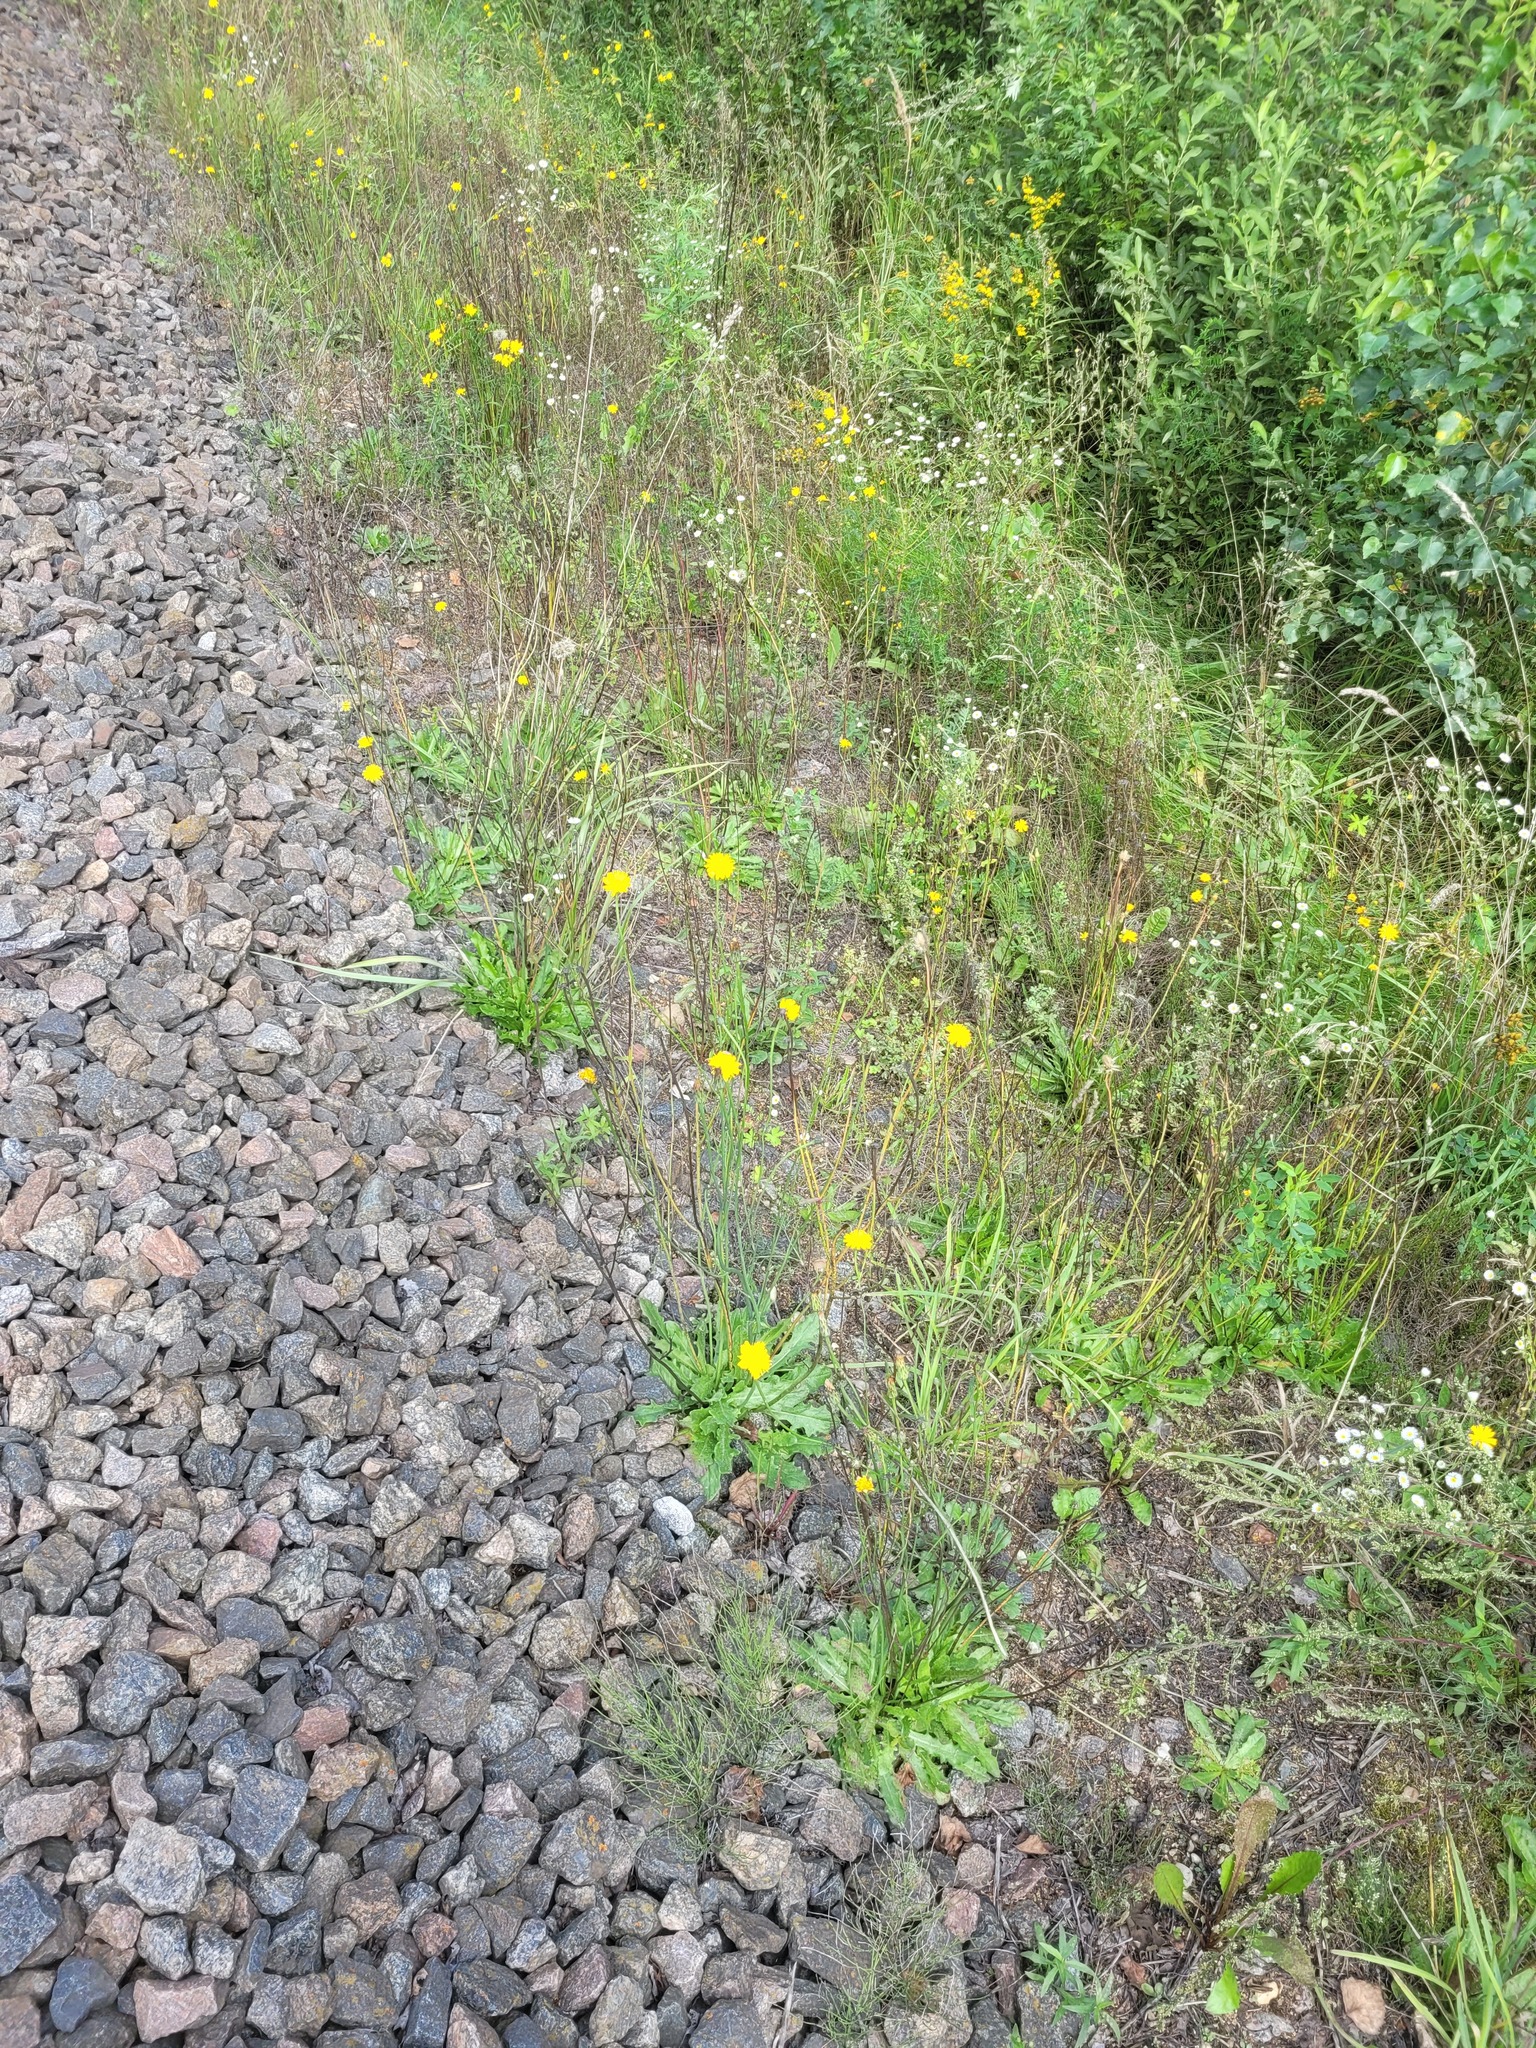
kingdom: Plantae
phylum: Tracheophyta
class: Magnoliopsida
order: Asterales
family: Asteraceae
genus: Hypochaeris
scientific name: Hypochaeris radicata
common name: Flatweed
